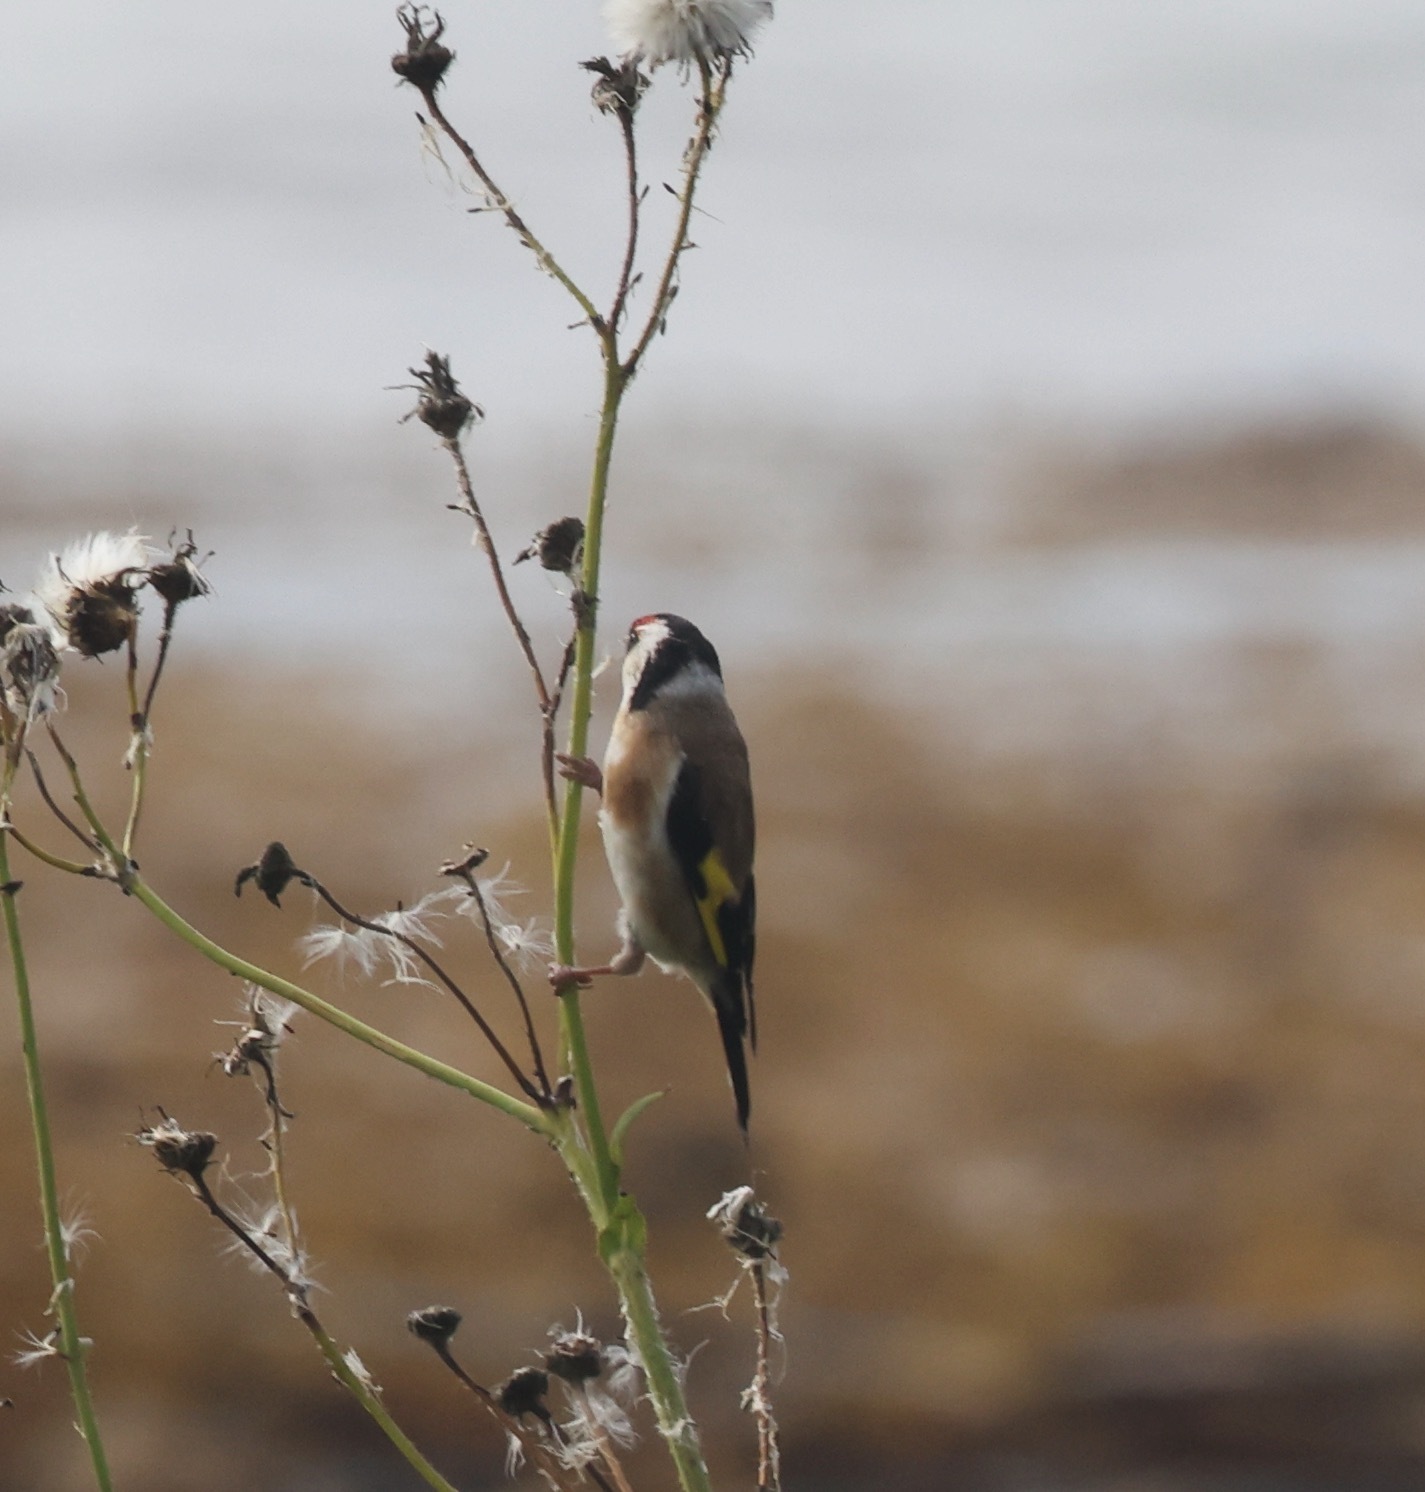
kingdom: Animalia
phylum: Chordata
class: Aves
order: Passeriformes
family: Fringillidae
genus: Carduelis
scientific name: Carduelis carduelis
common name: European goldfinch
